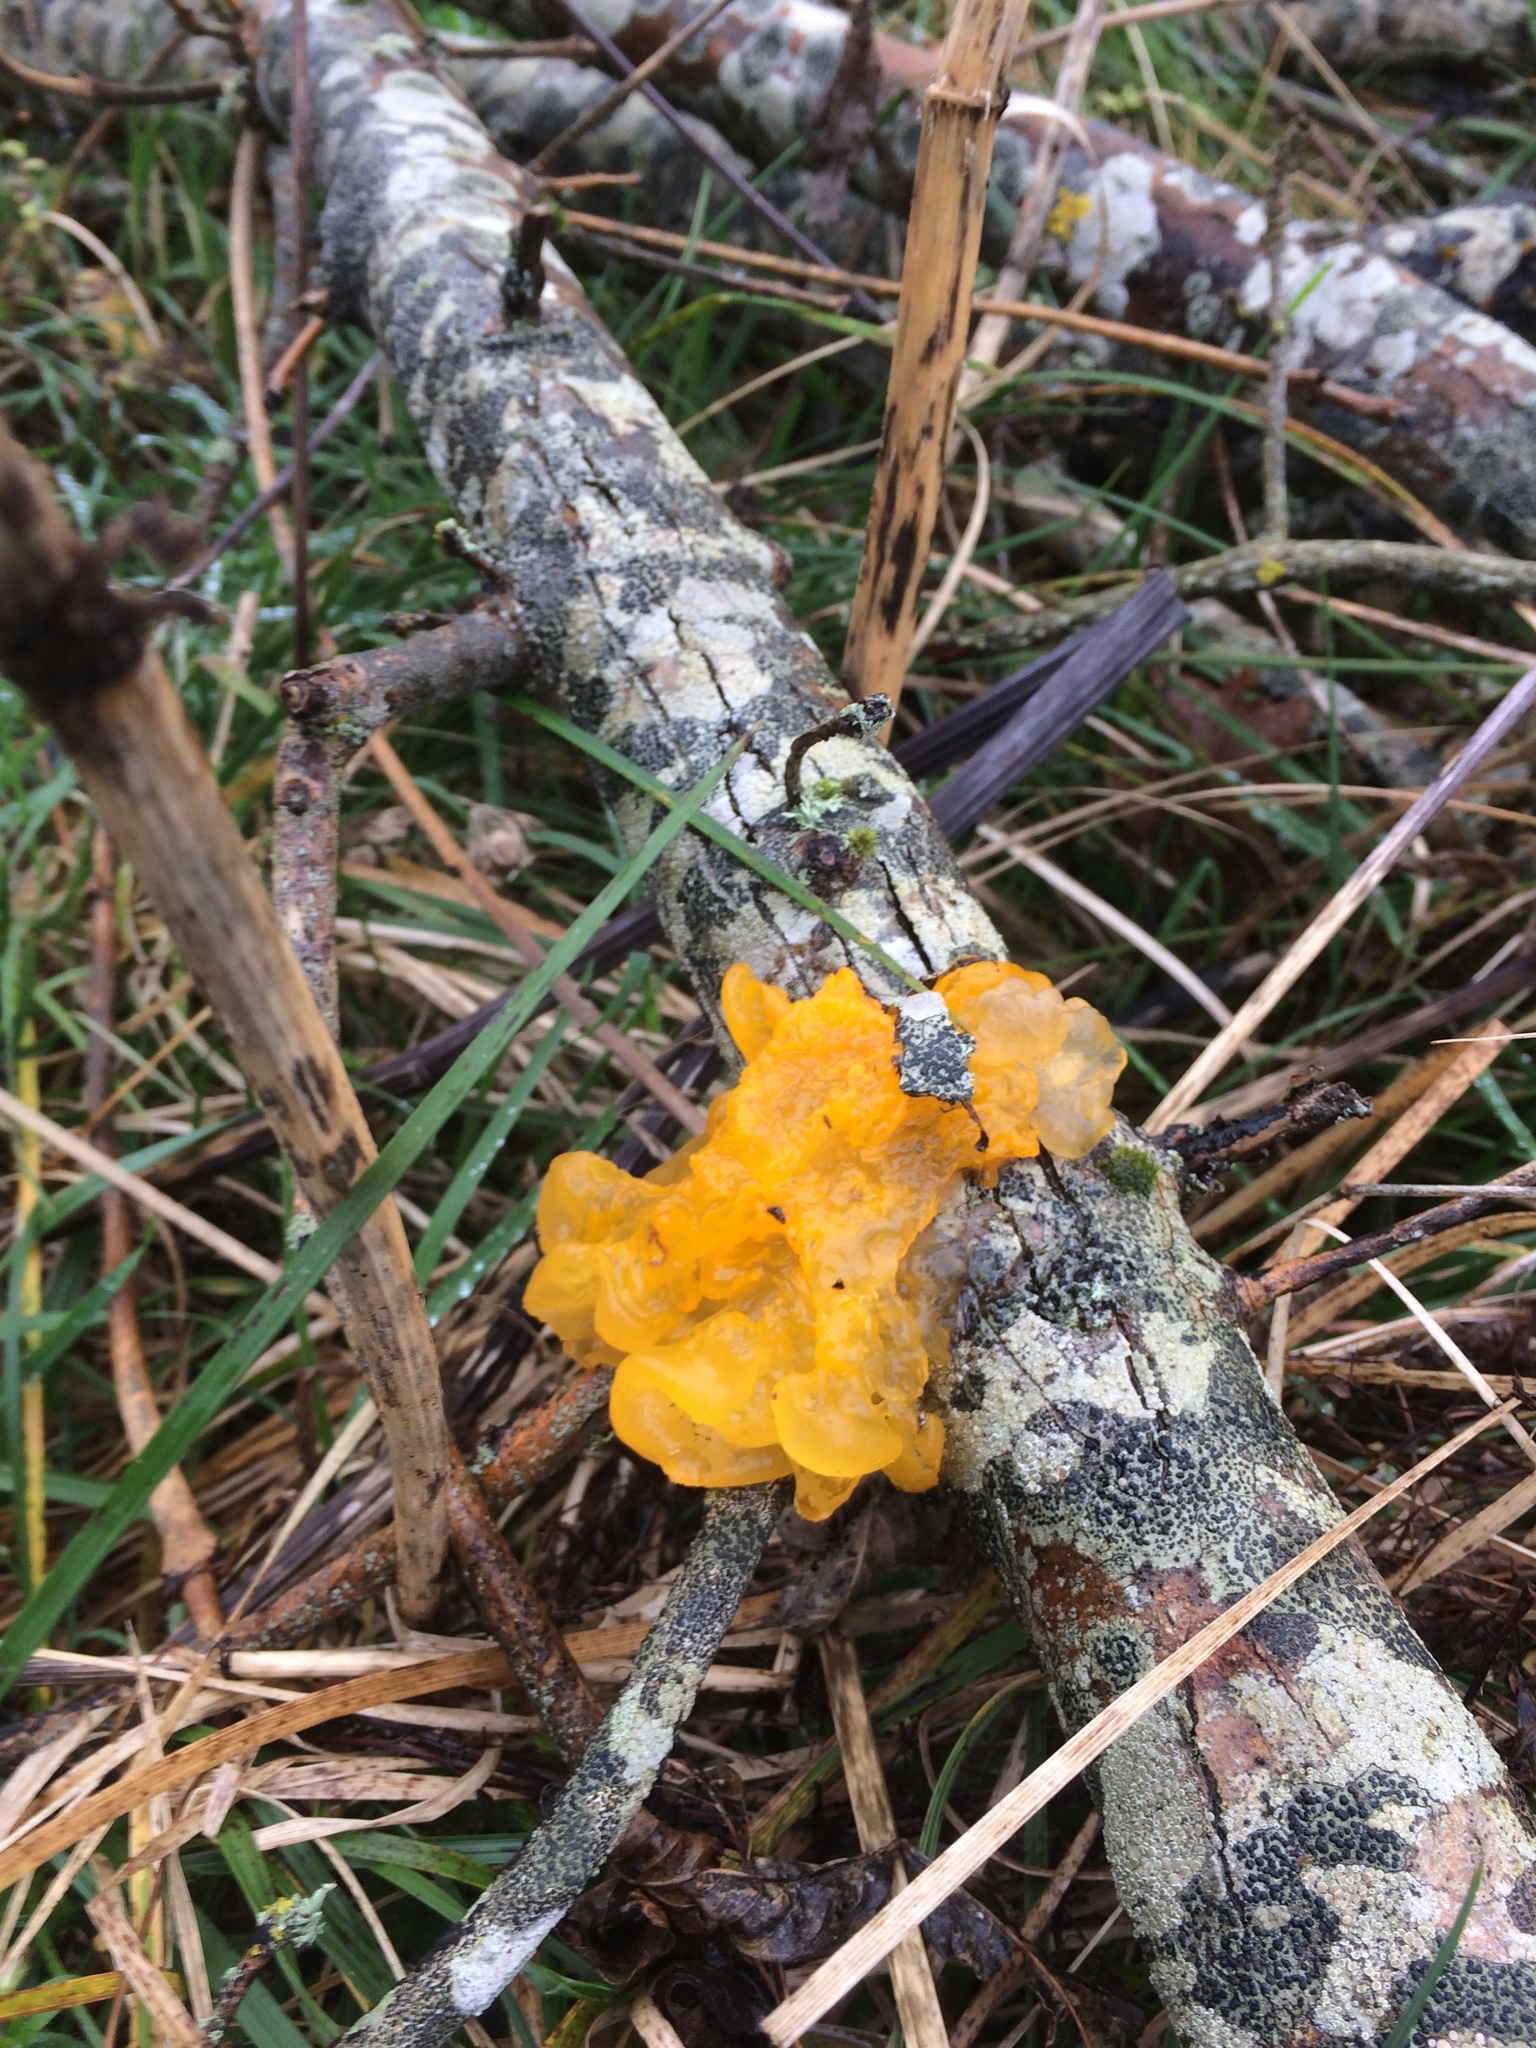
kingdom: Fungi
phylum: Basidiomycota
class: Tremellomycetes
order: Tremellales
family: Tremellaceae
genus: Tremella
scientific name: Tremella mesenterica
